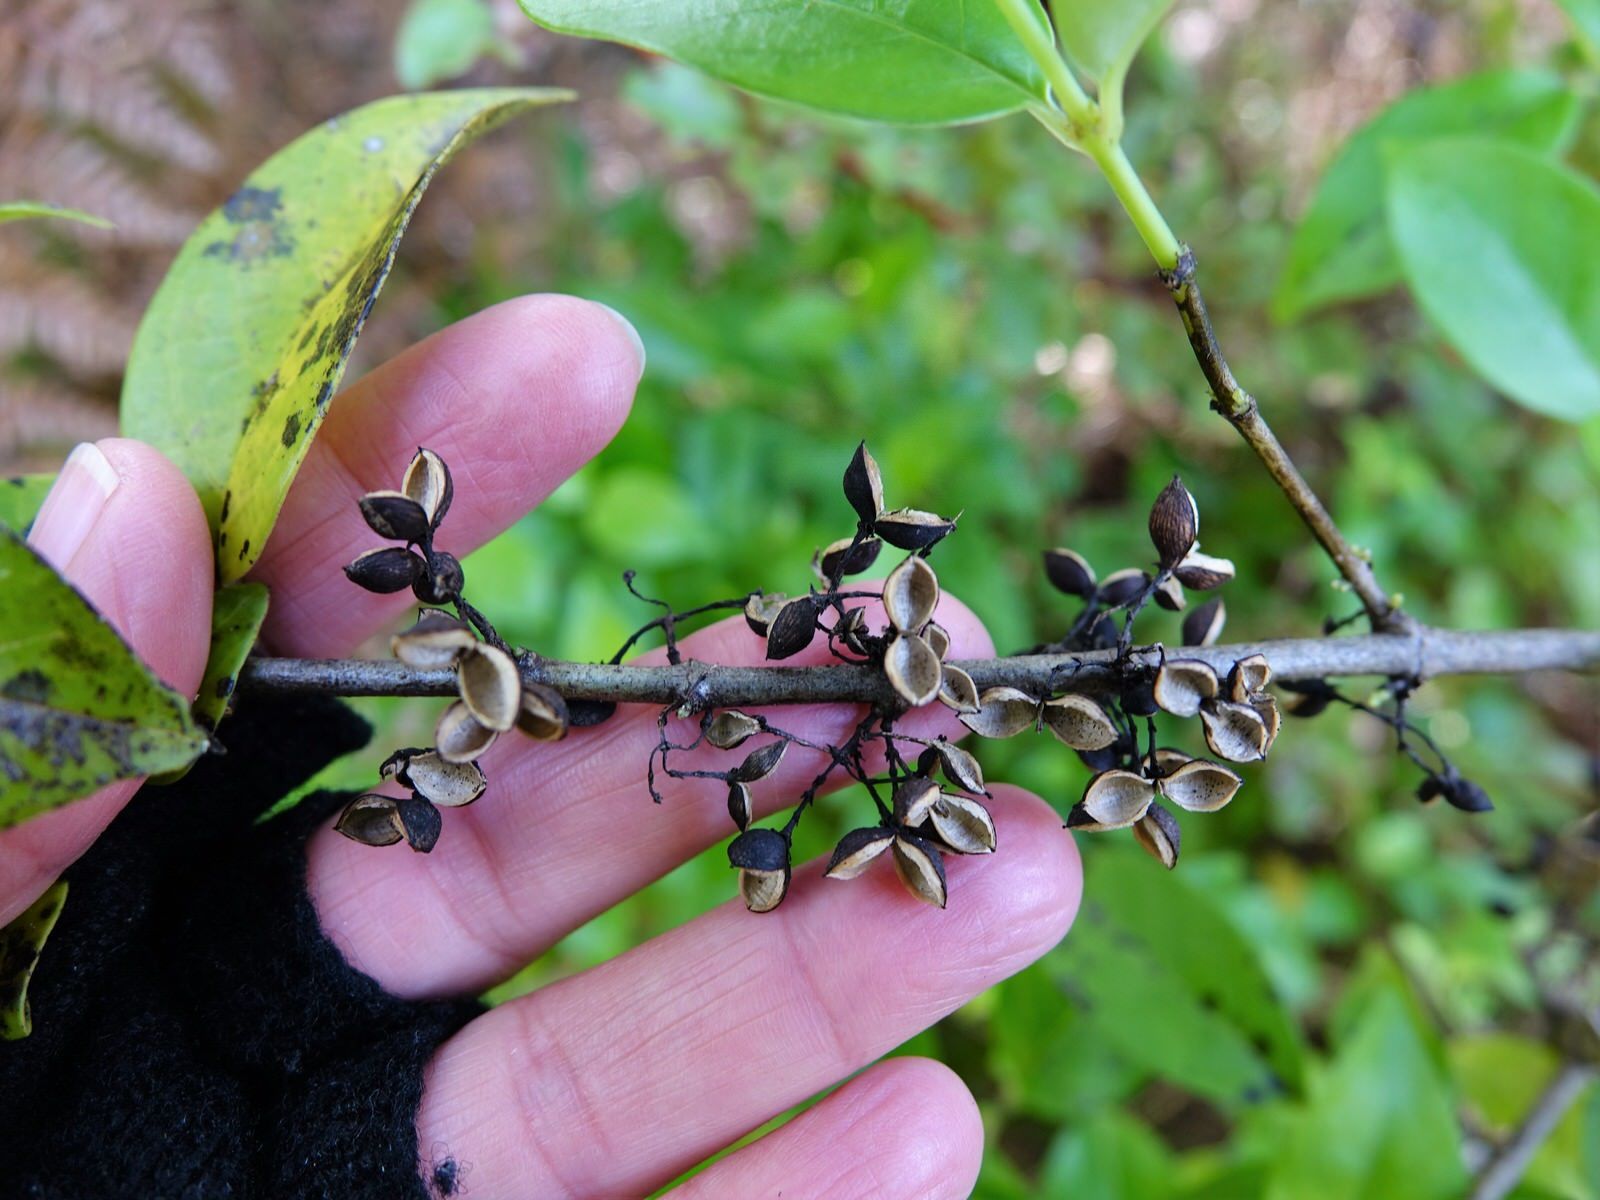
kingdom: Plantae
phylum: Tracheophyta
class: Magnoliopsida
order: Gentianales
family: Loganiaceae
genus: Geniostoma
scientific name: Geniostoma ligustrifolium
